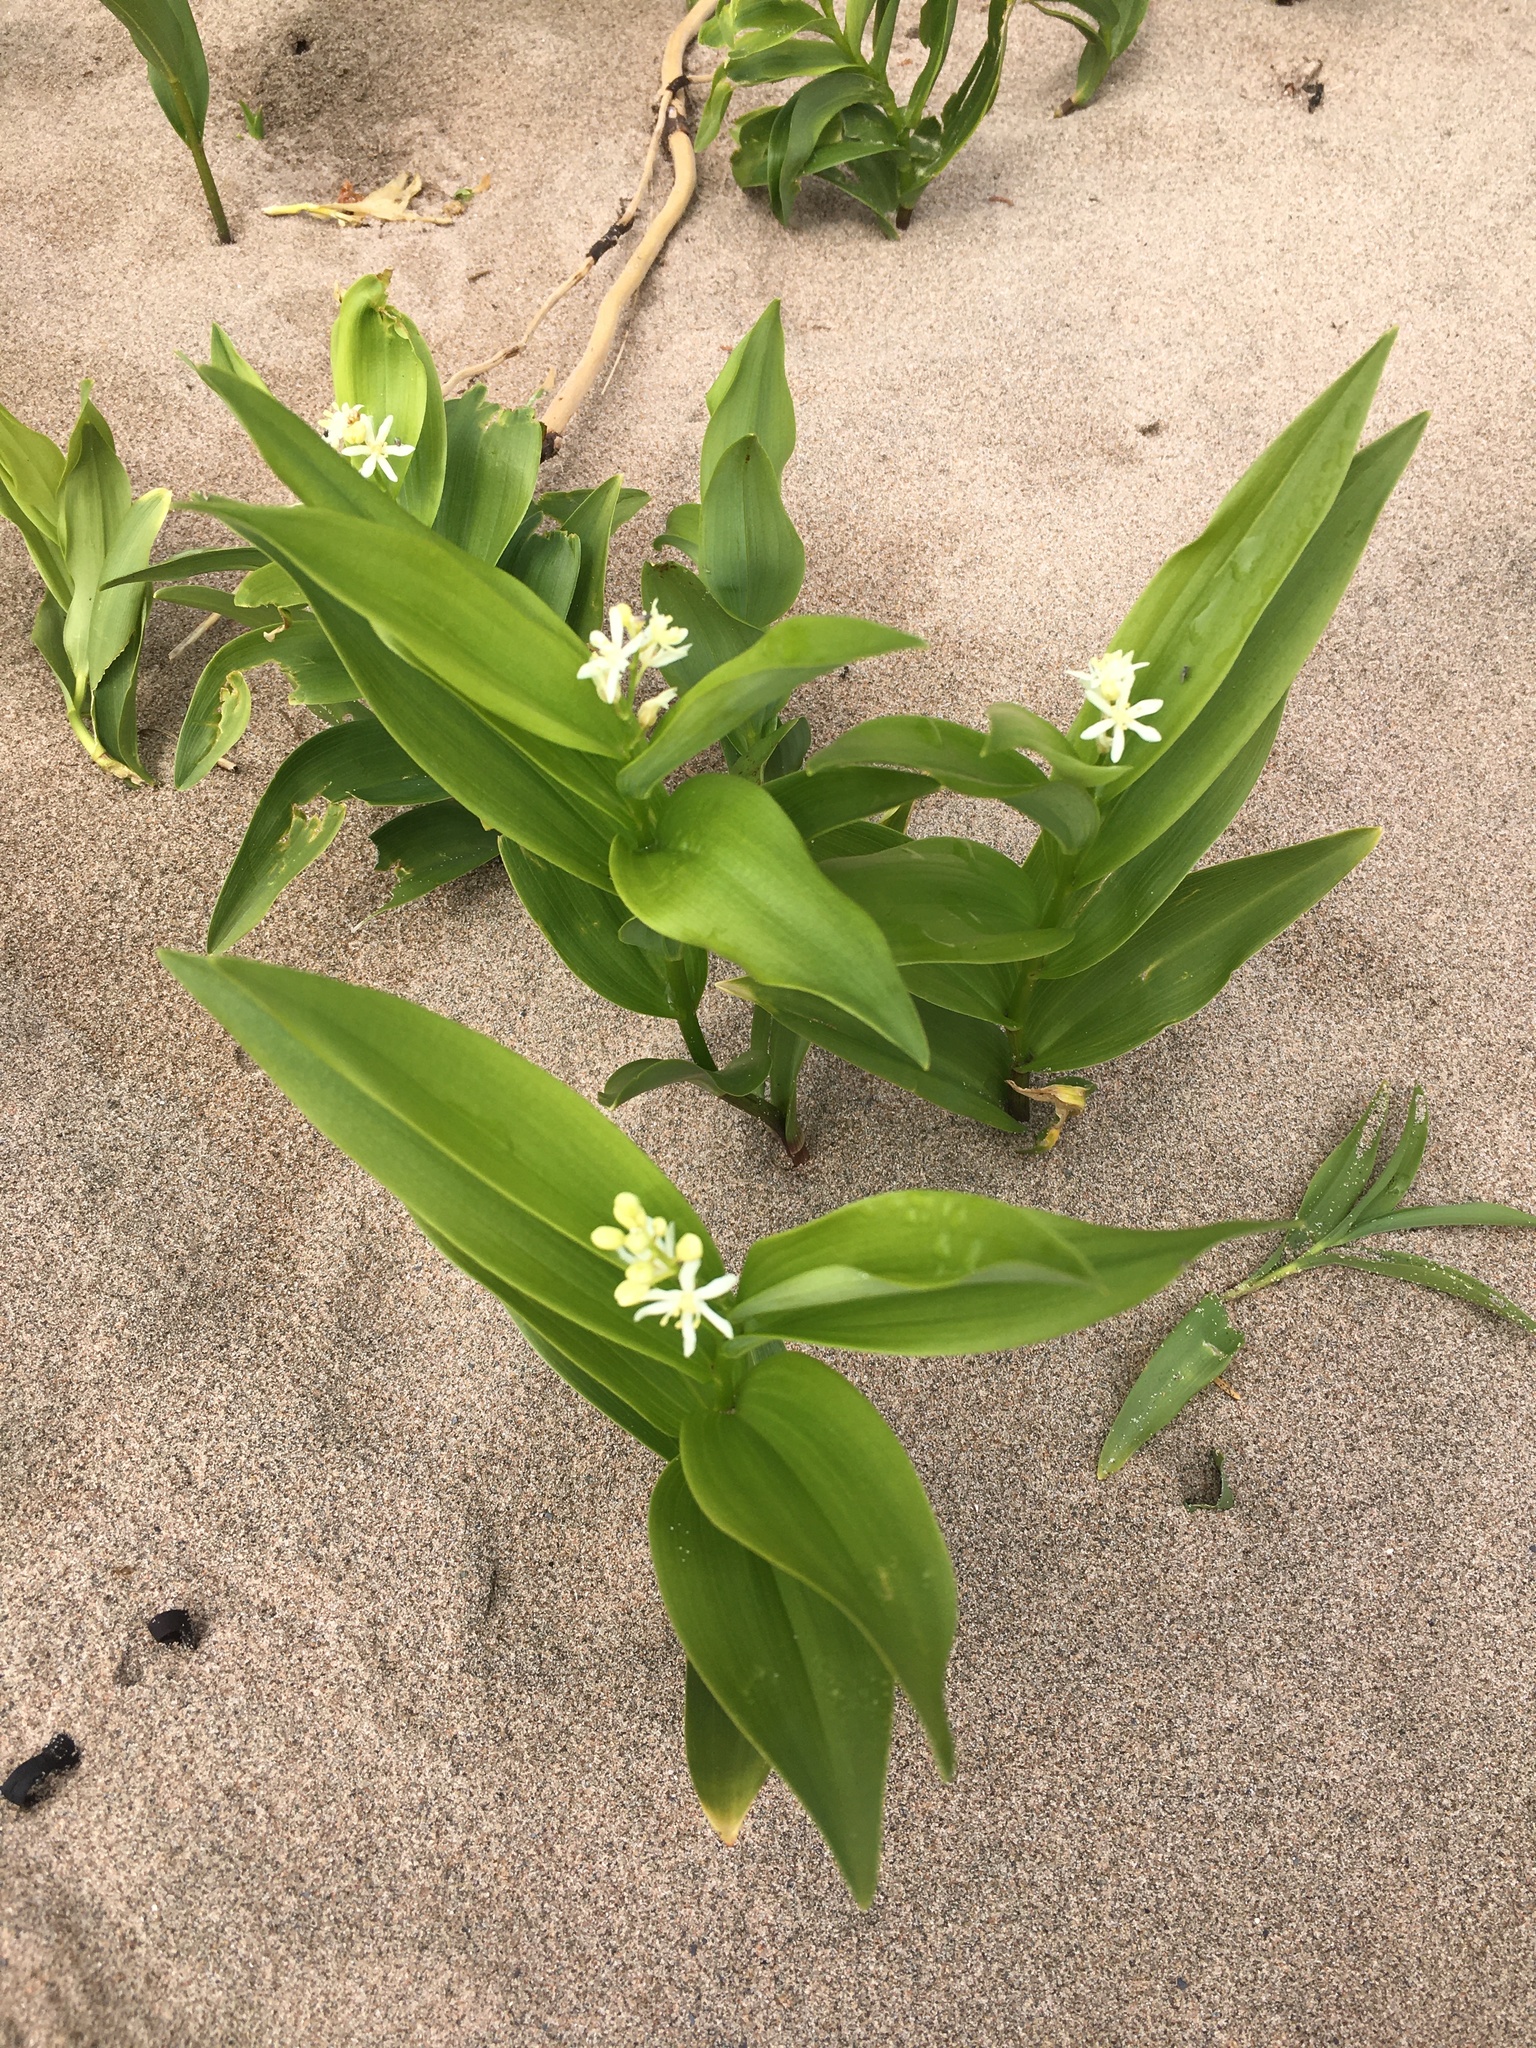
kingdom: Plantae
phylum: Tracheophyta
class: Liliopsida
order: Asparagales
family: Asparagaceae
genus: Maianthemum
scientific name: Maianthemum stellatum
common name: Little false solomon's seal
